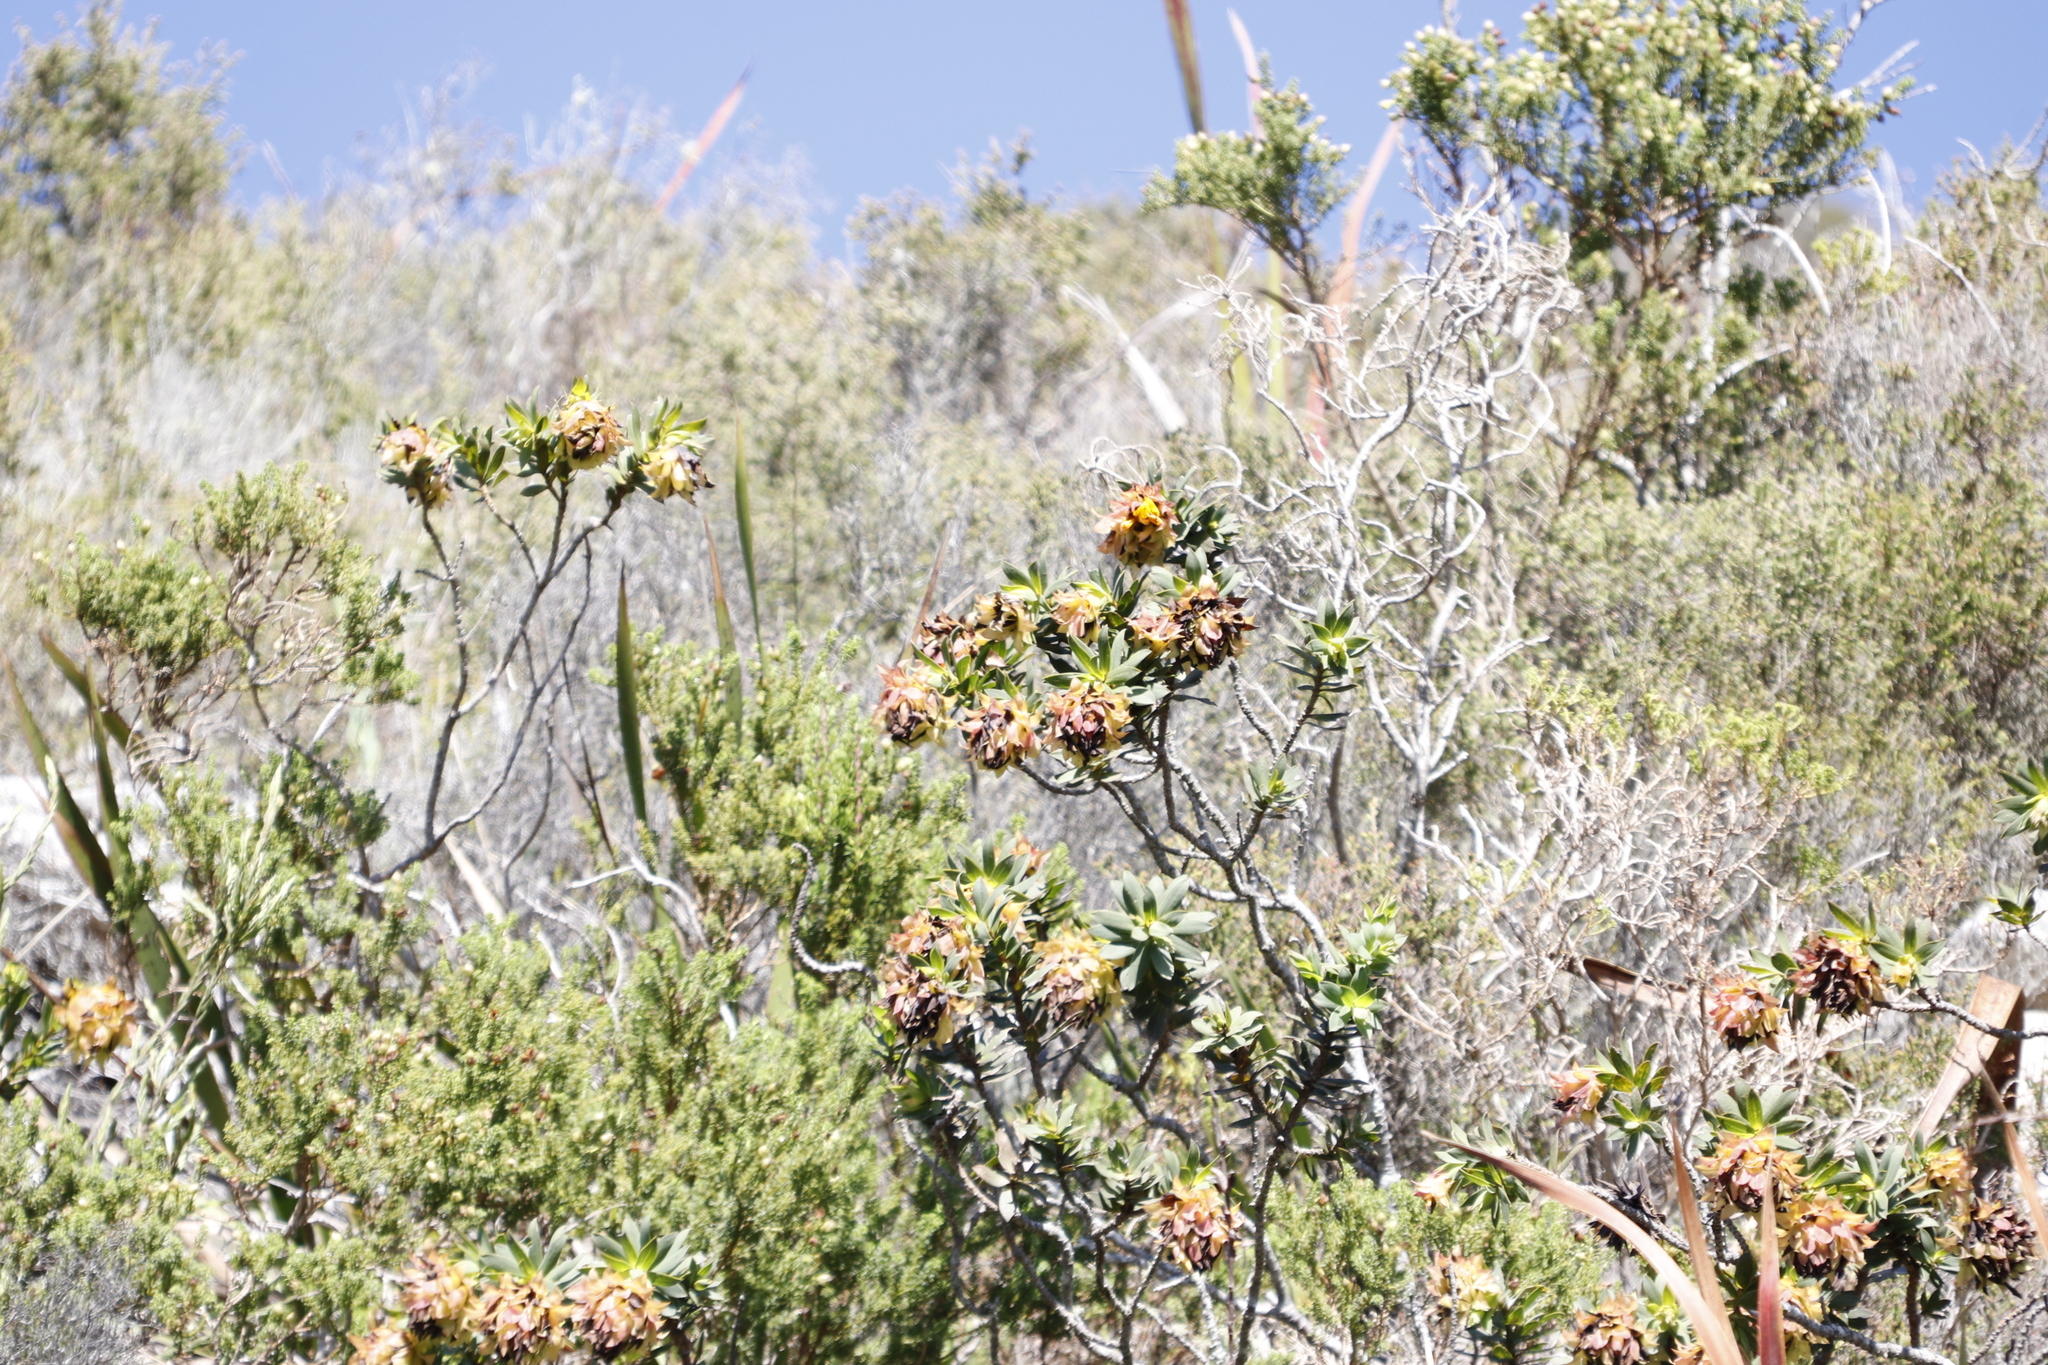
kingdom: Plantae
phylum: Tracheophyta
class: Magnoliopsida
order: Fabales
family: Fabaceae
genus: Liparia
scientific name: Liparia splendens
